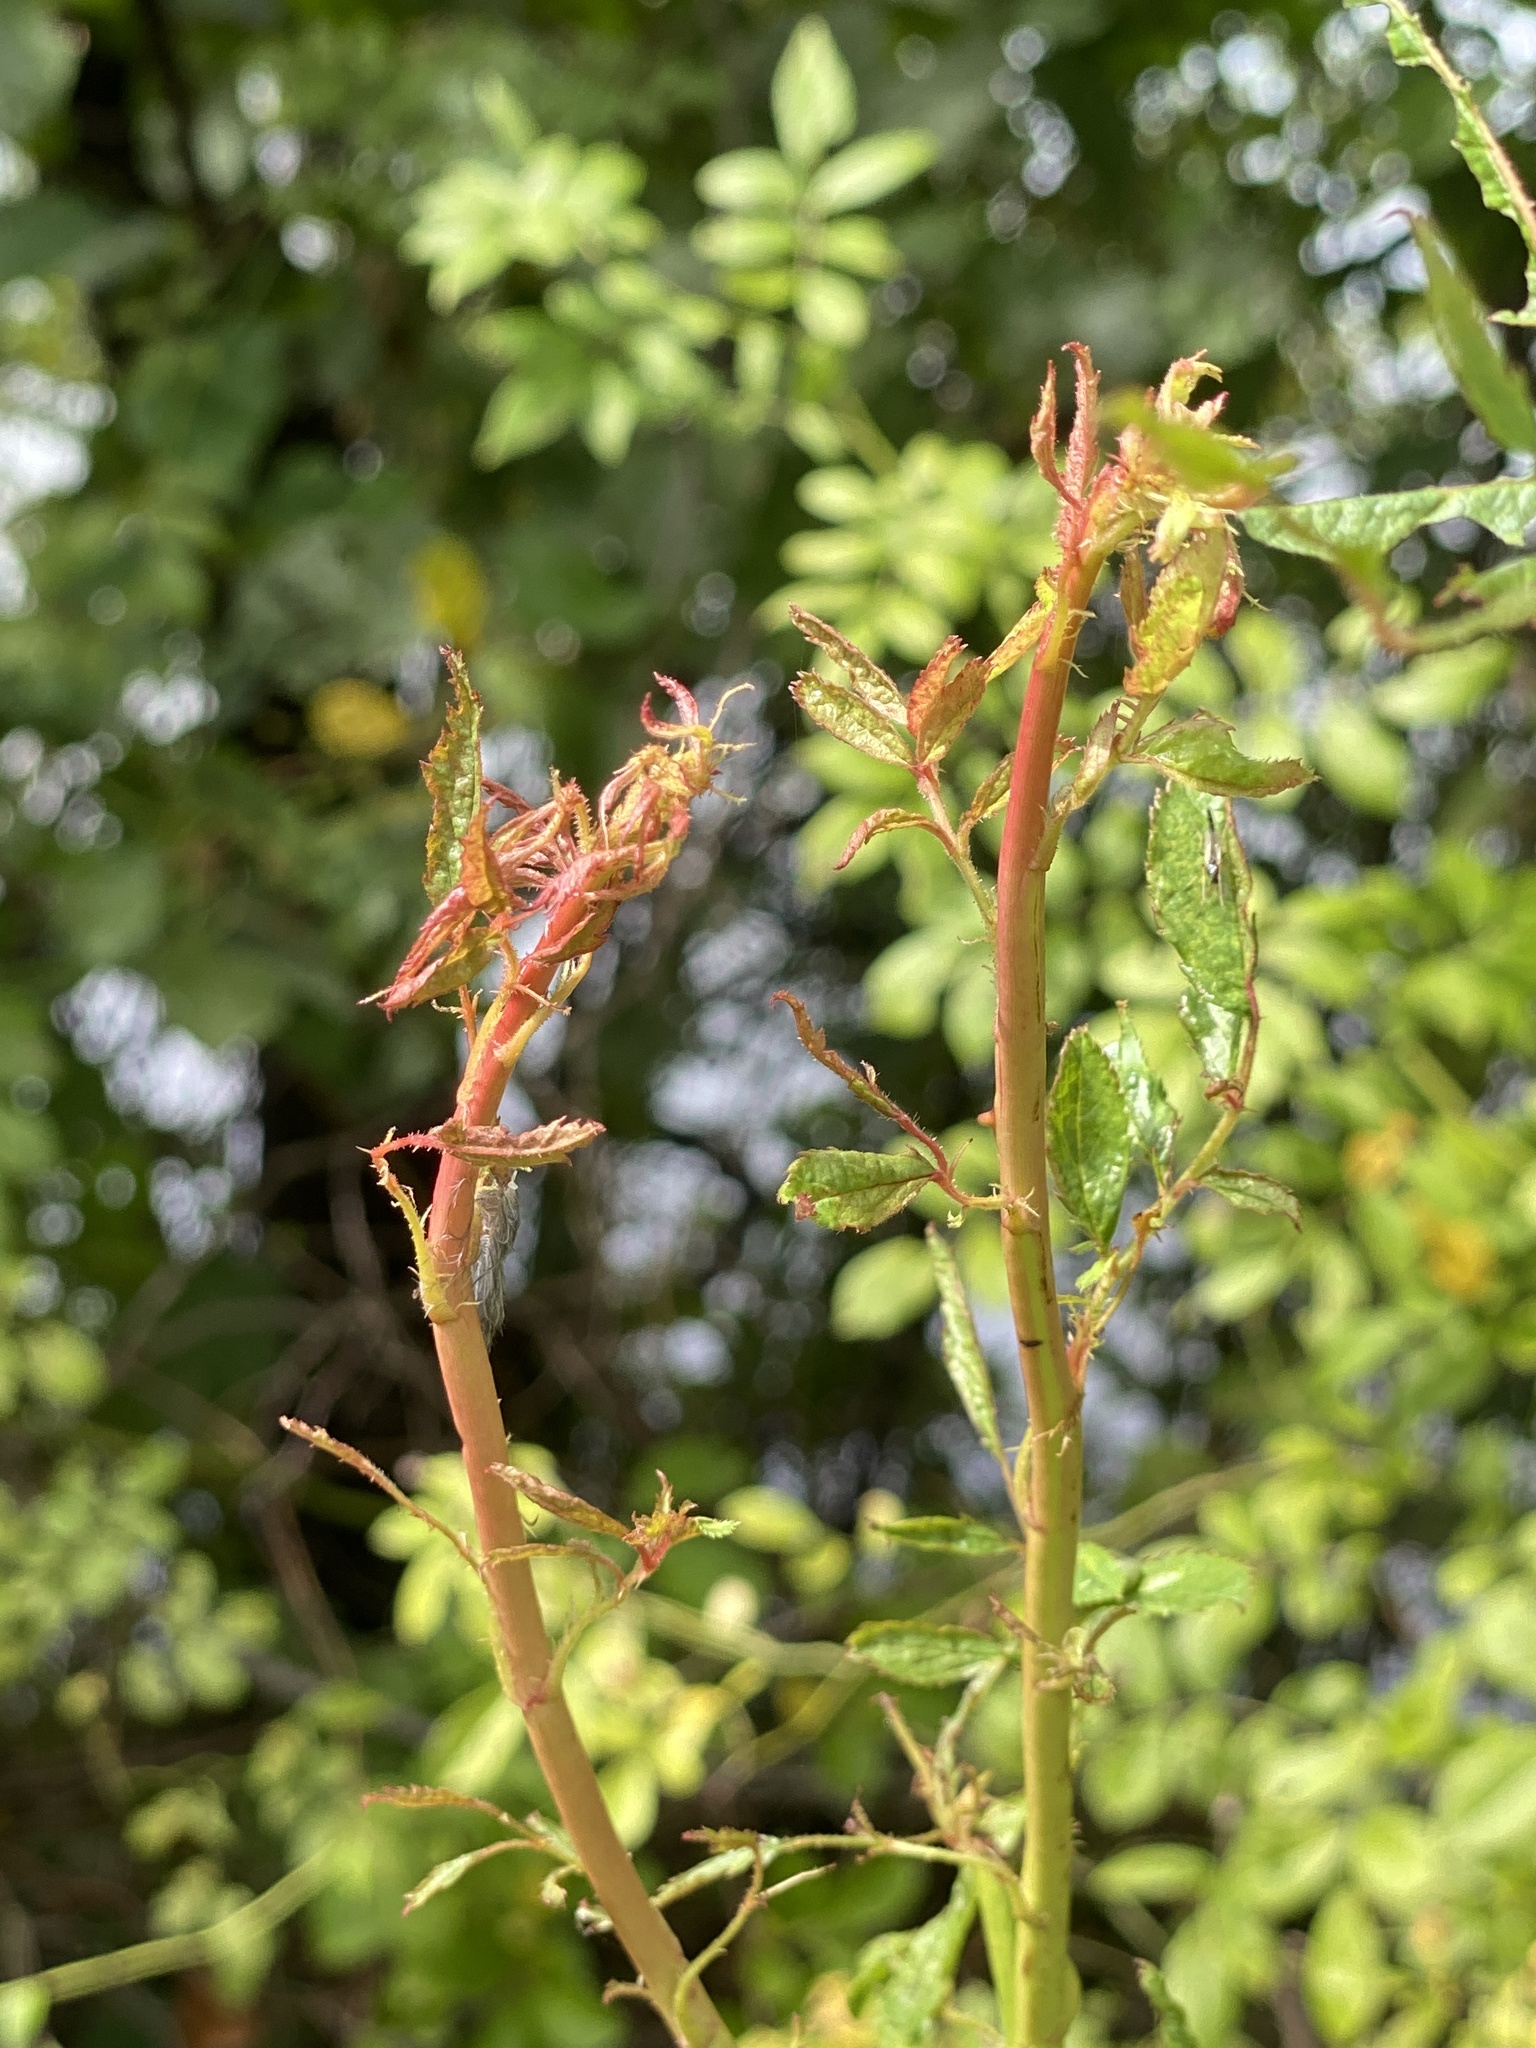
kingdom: Viruses
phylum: Negarnaviricota
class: Ellioviricetes
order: Bunyavirales
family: Fimoviridae
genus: Emaravirus
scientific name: Emaravirus rosae
